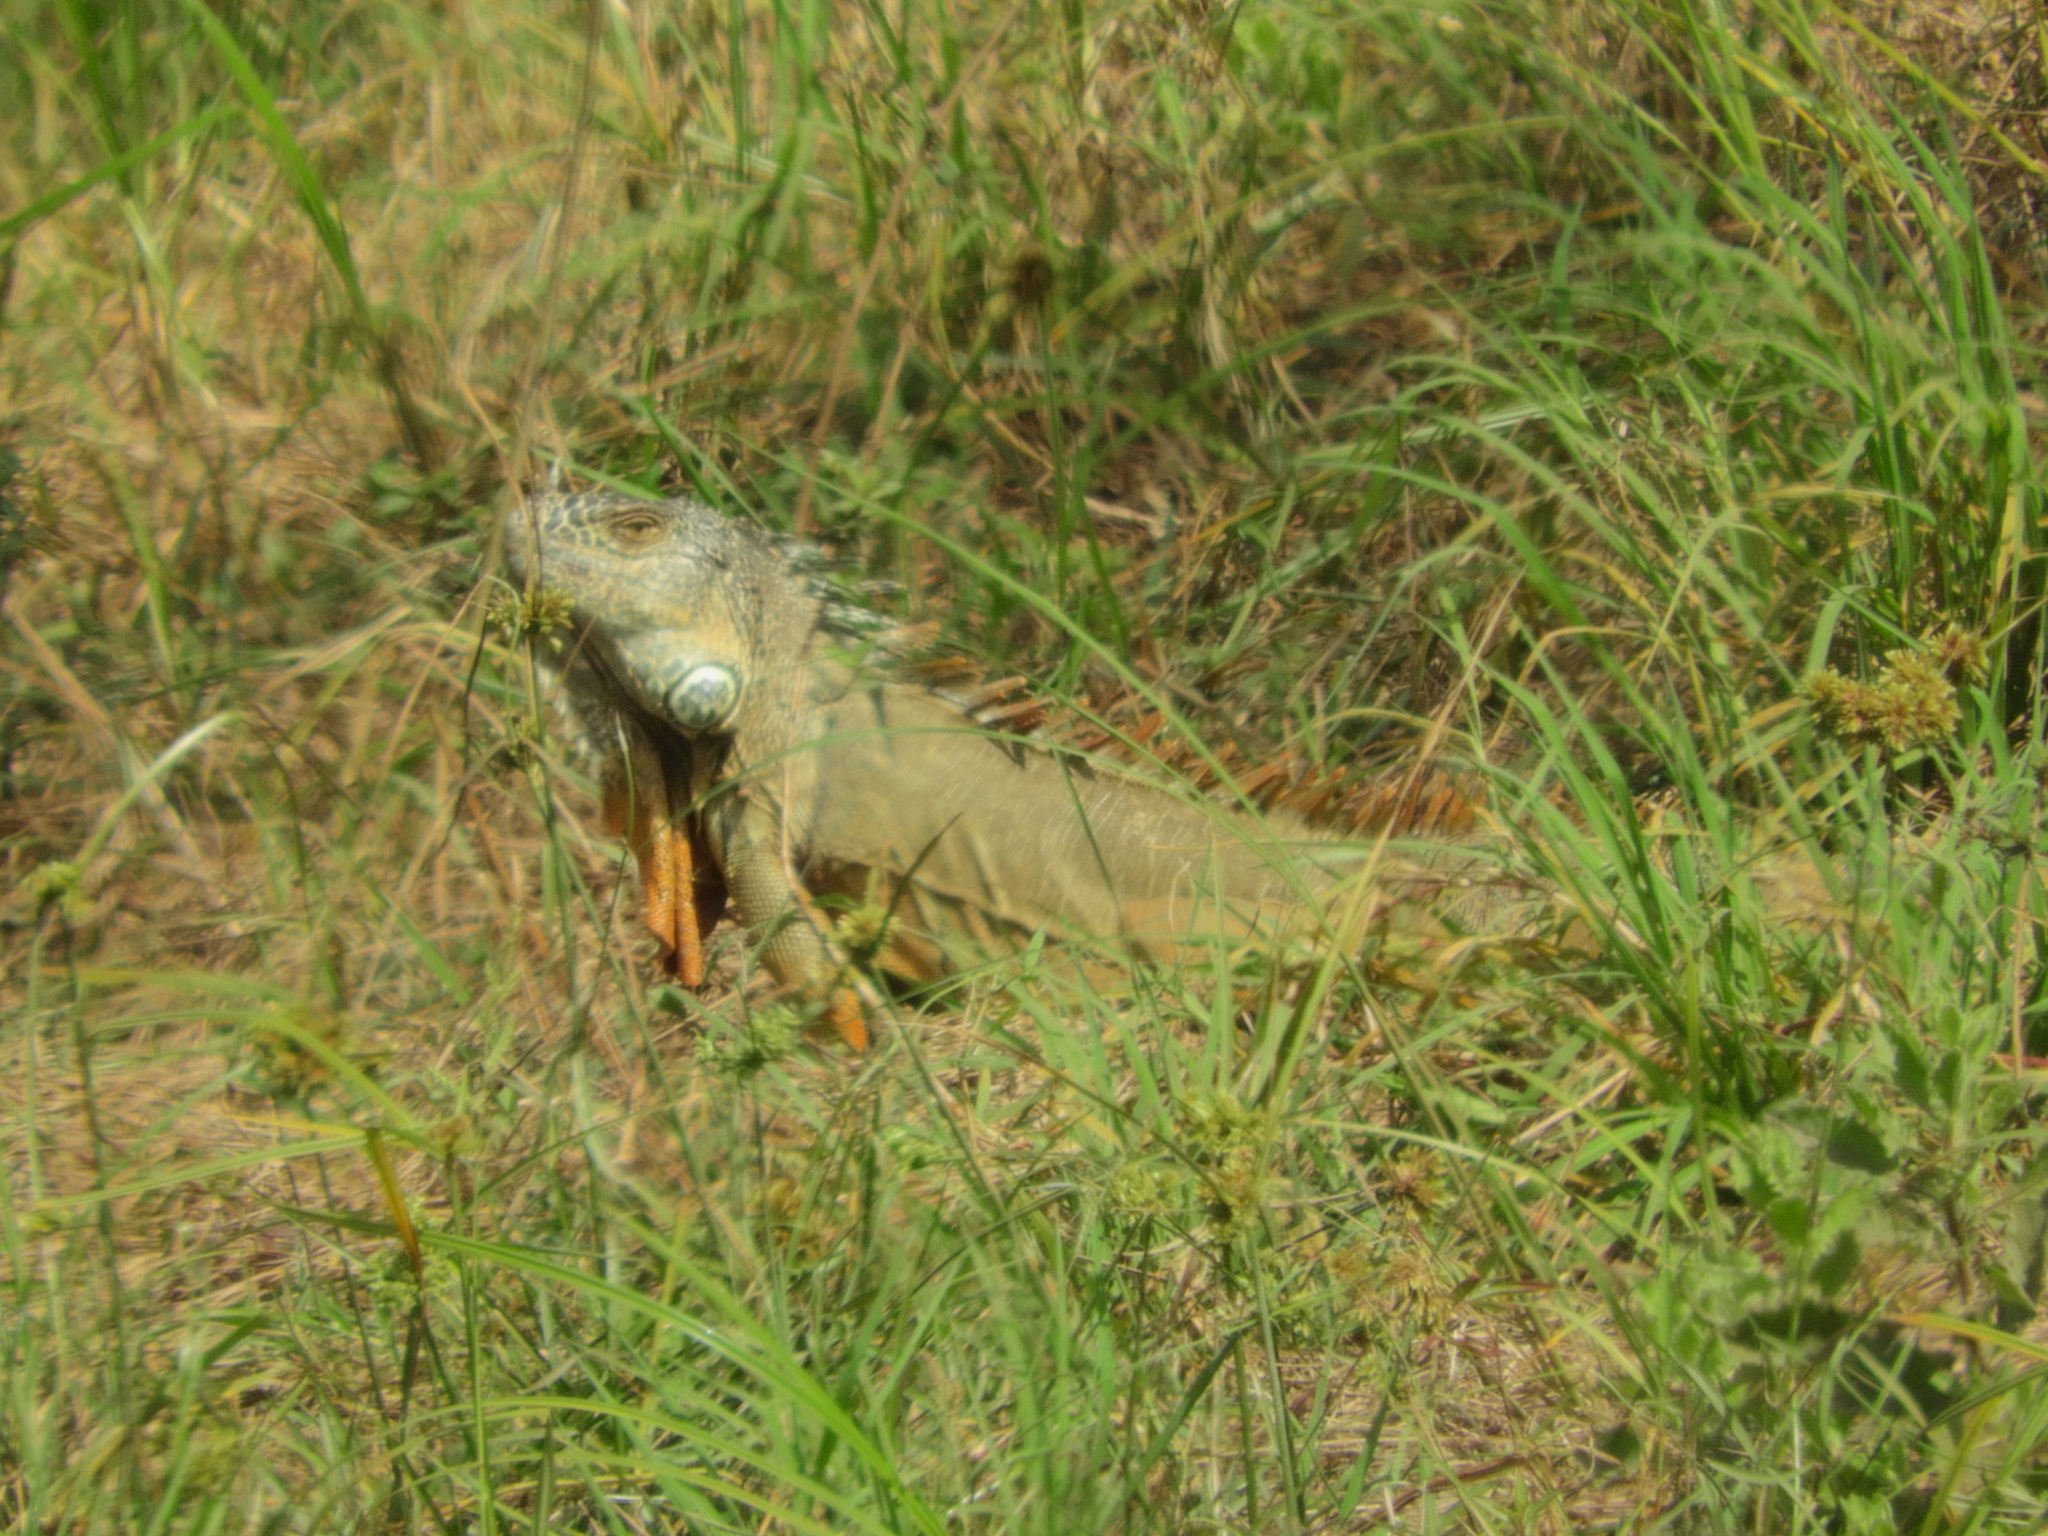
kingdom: Animalia
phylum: Chordata
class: Squamata
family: Iguanidae
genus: Iguana
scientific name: Iguana iguana
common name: Green iguana
